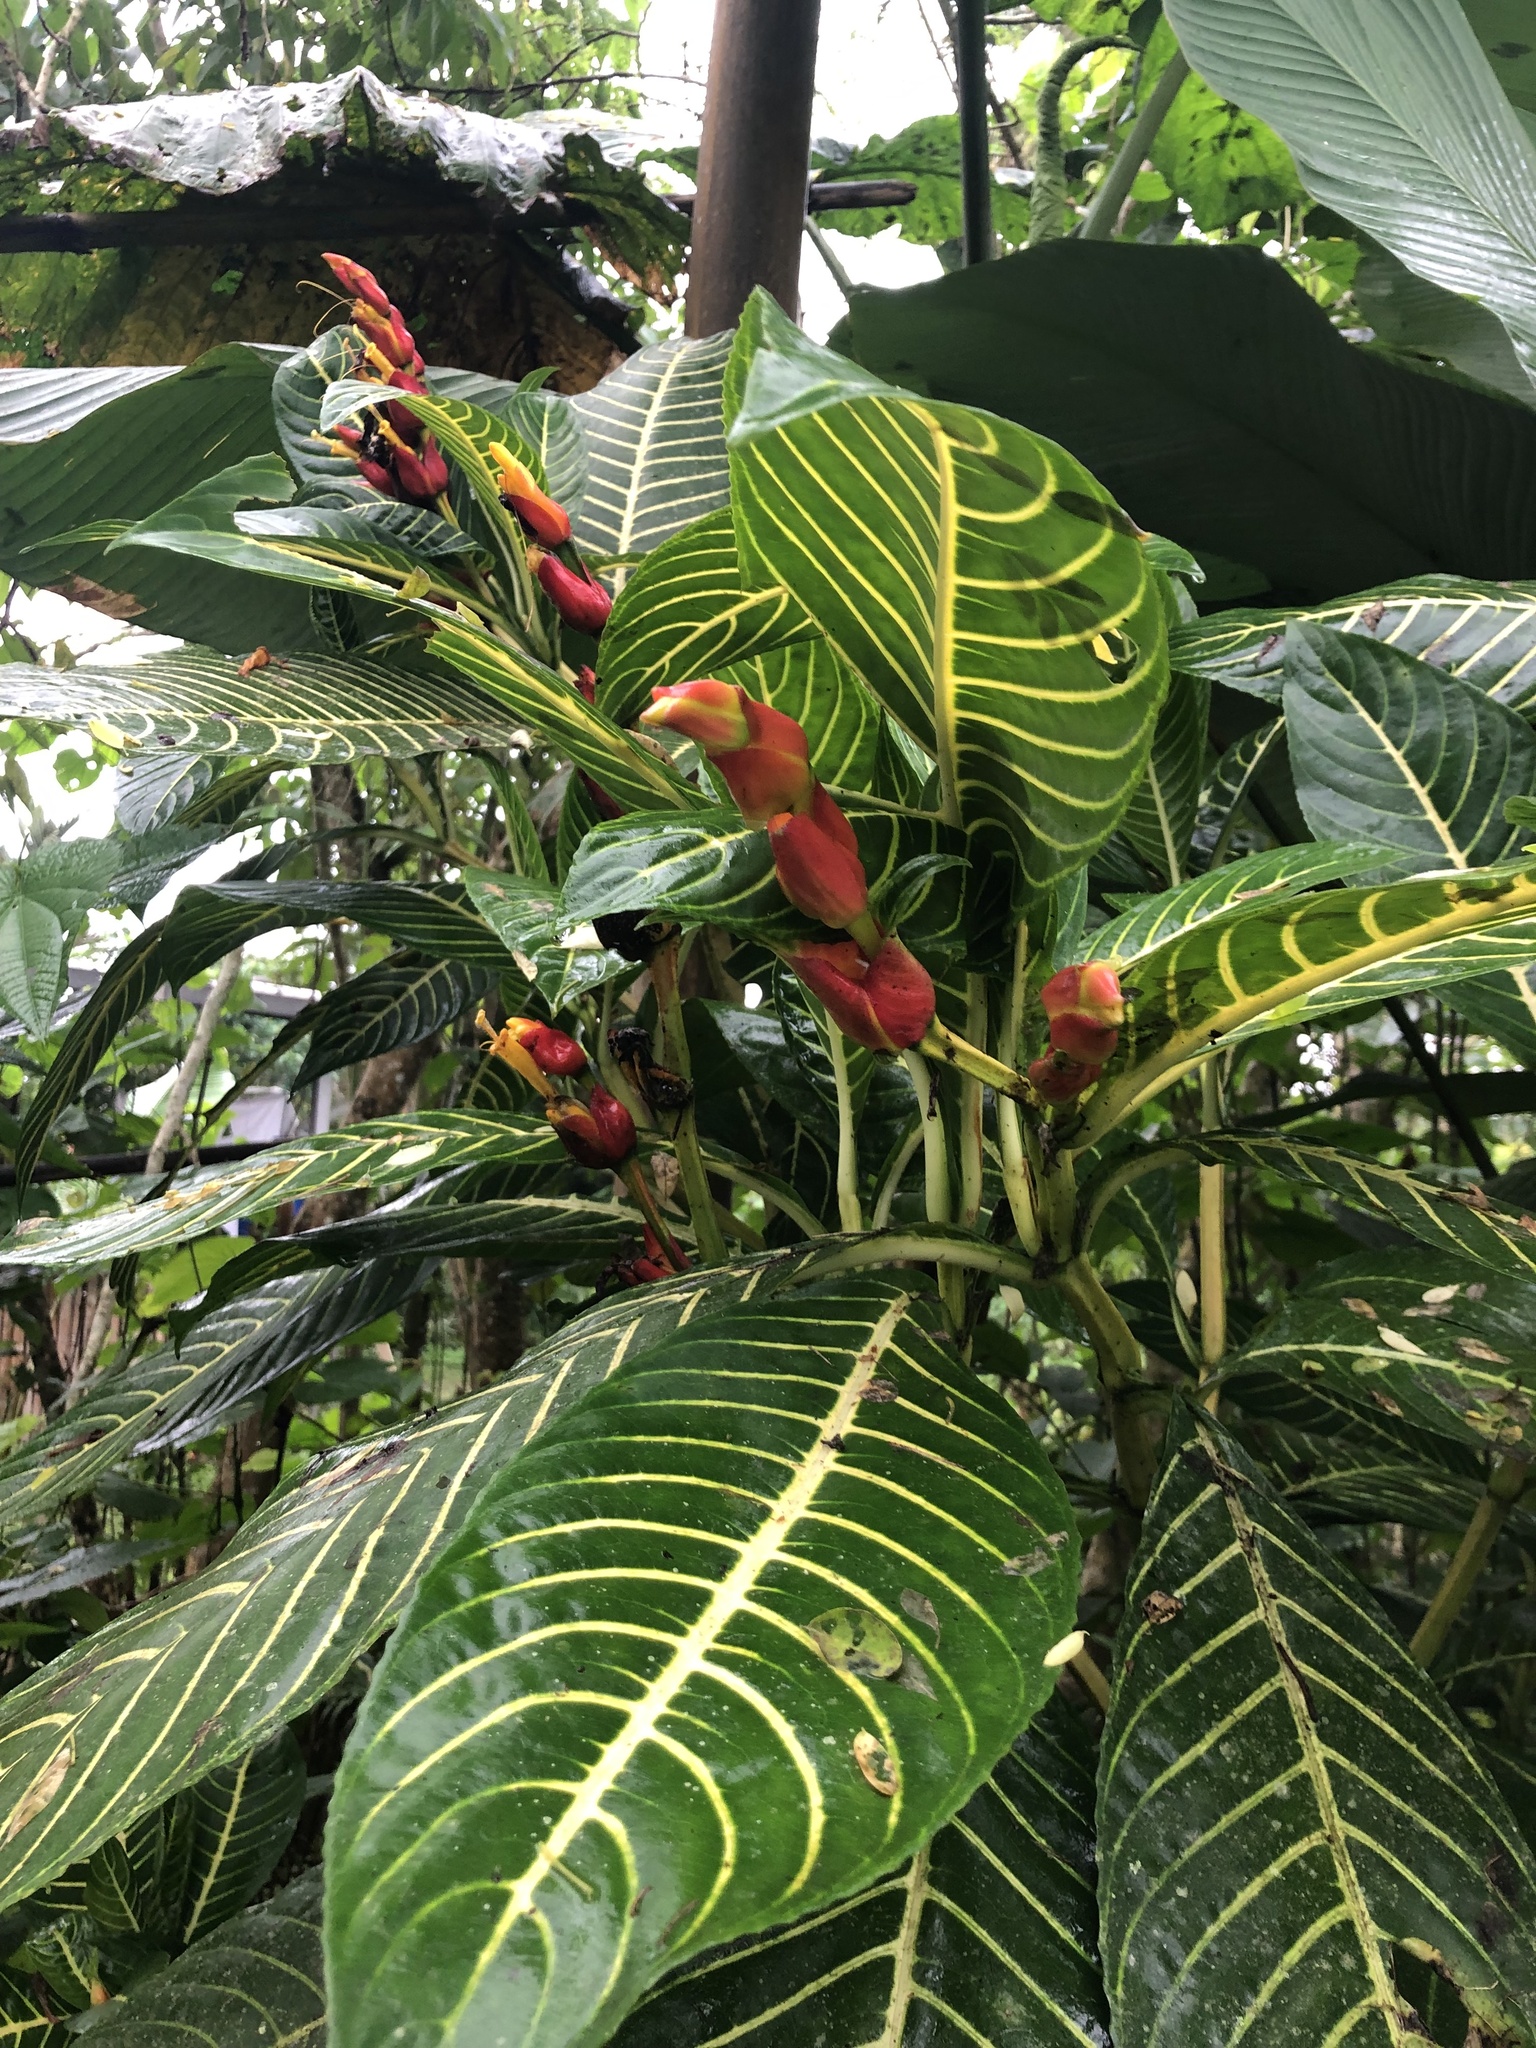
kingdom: Plantae
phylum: Tracheophyta
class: Magnoliopsida
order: Lamiales
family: Acanthaceae
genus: Sanchezia
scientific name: Sanchezia oblonga
